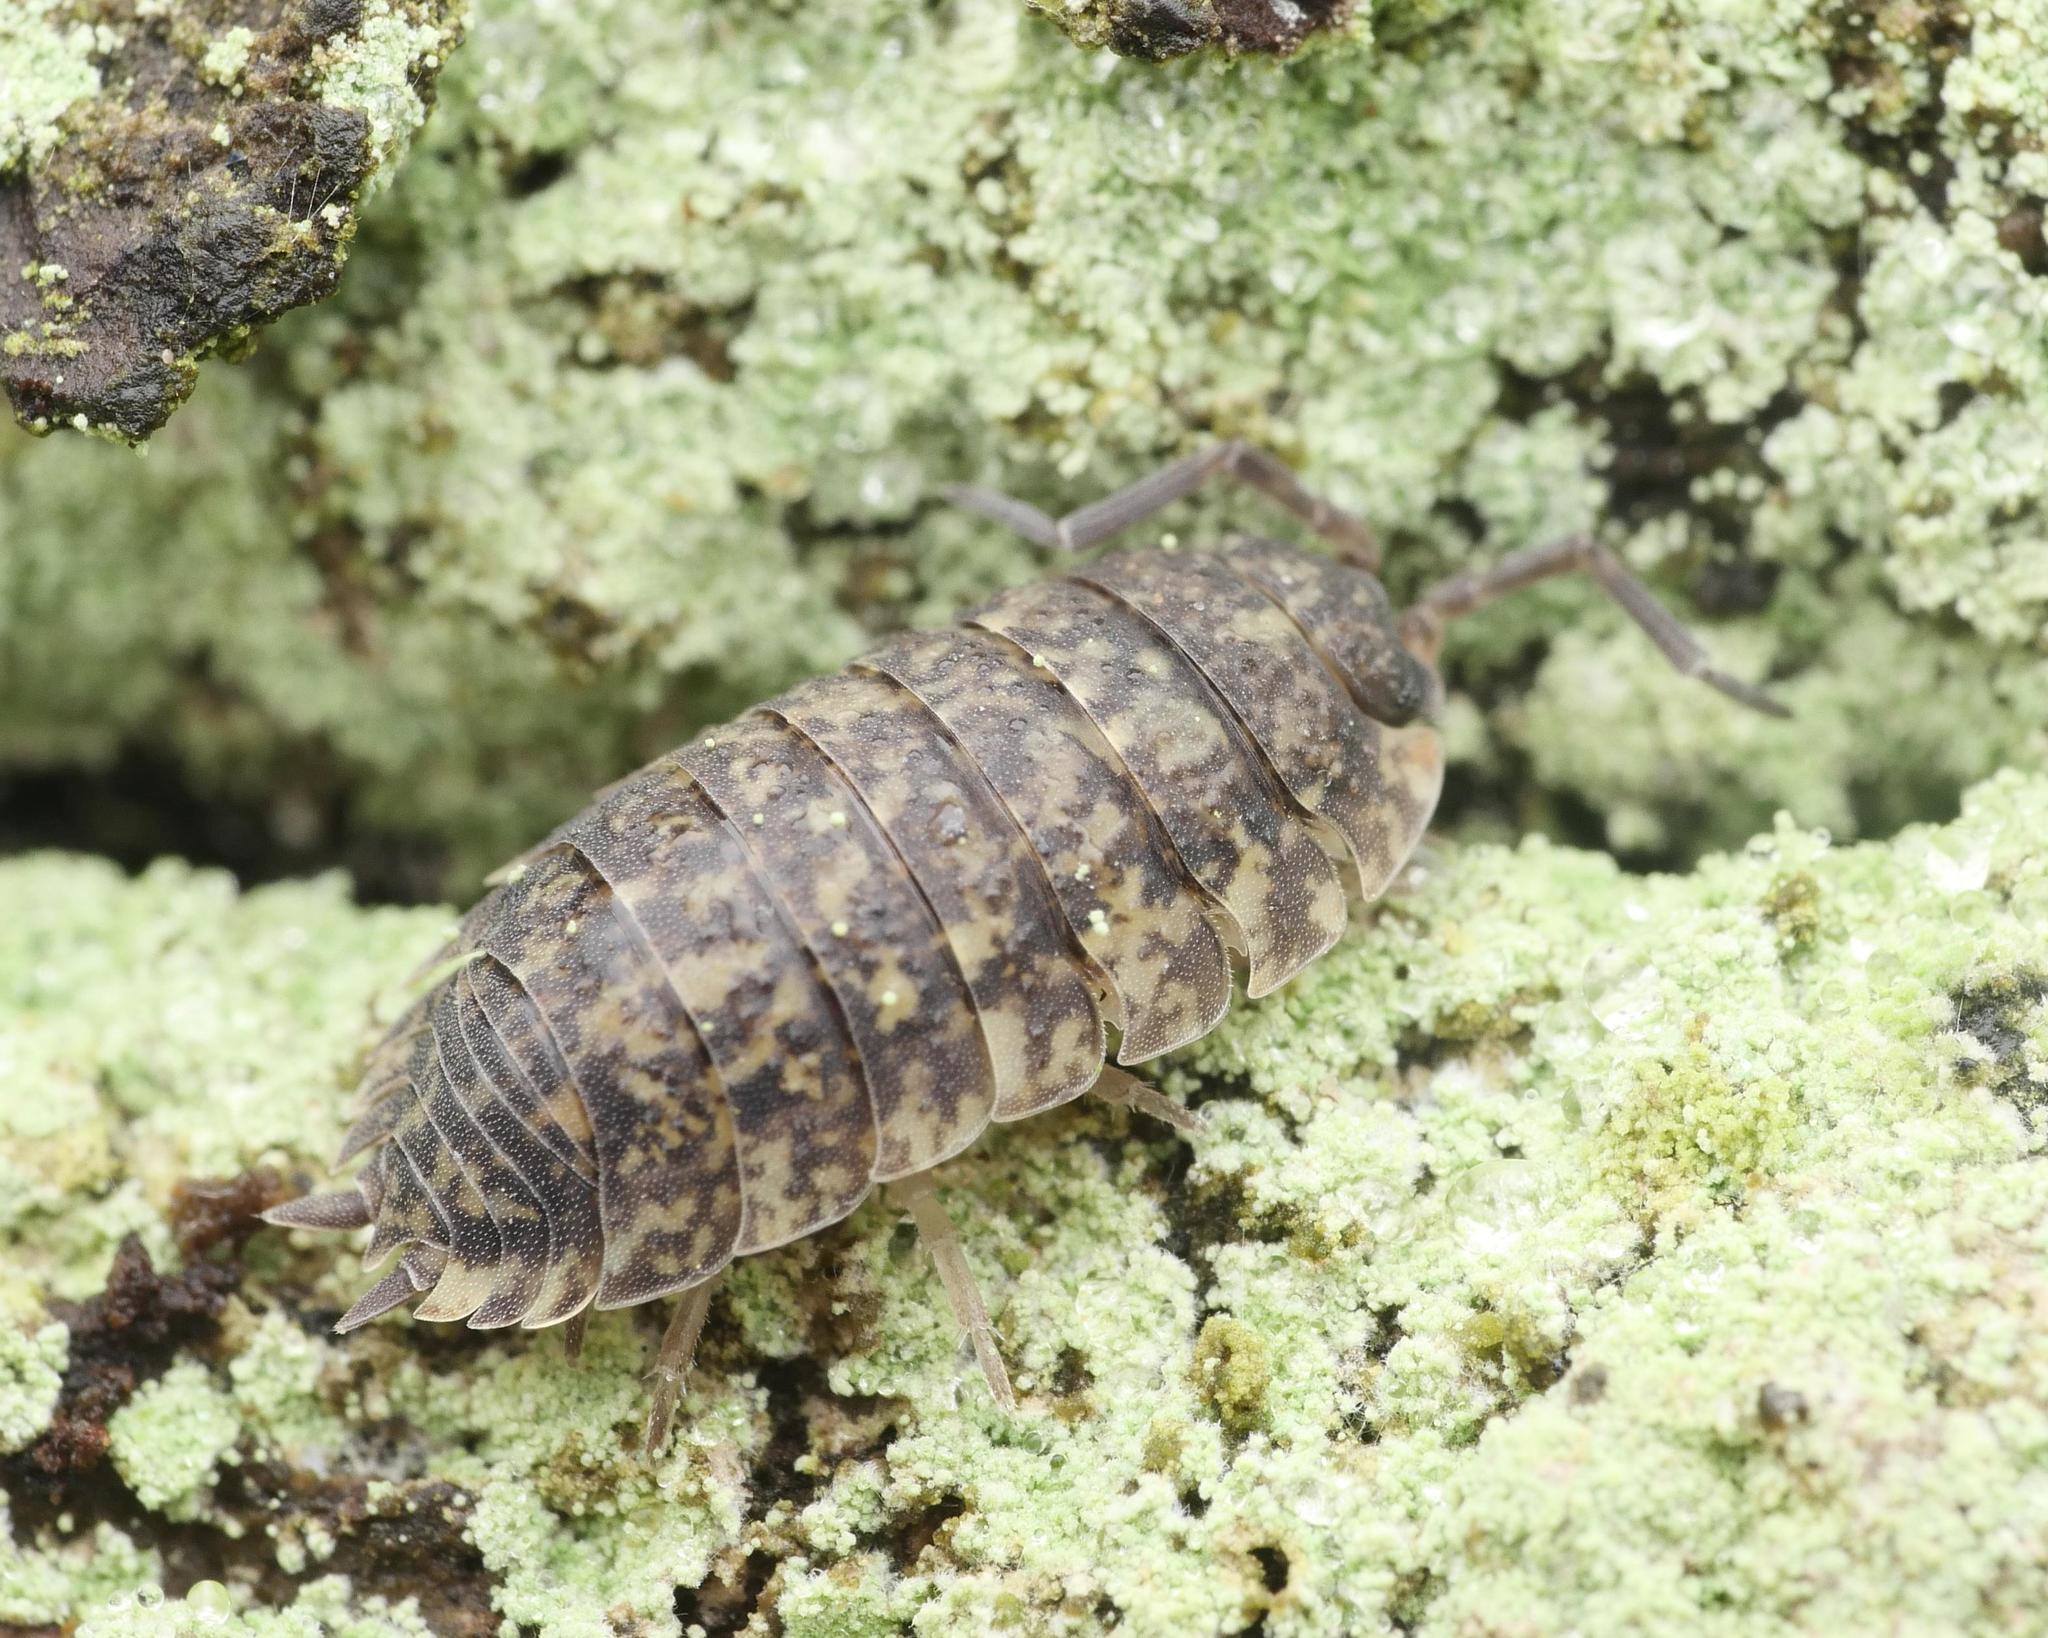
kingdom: Animalia
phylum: Arthropoda
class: Malacostraca
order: Isopoda
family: Porcellionidae
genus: Porcellio
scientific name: Porcellio scaber
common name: Common rough woodlouse
